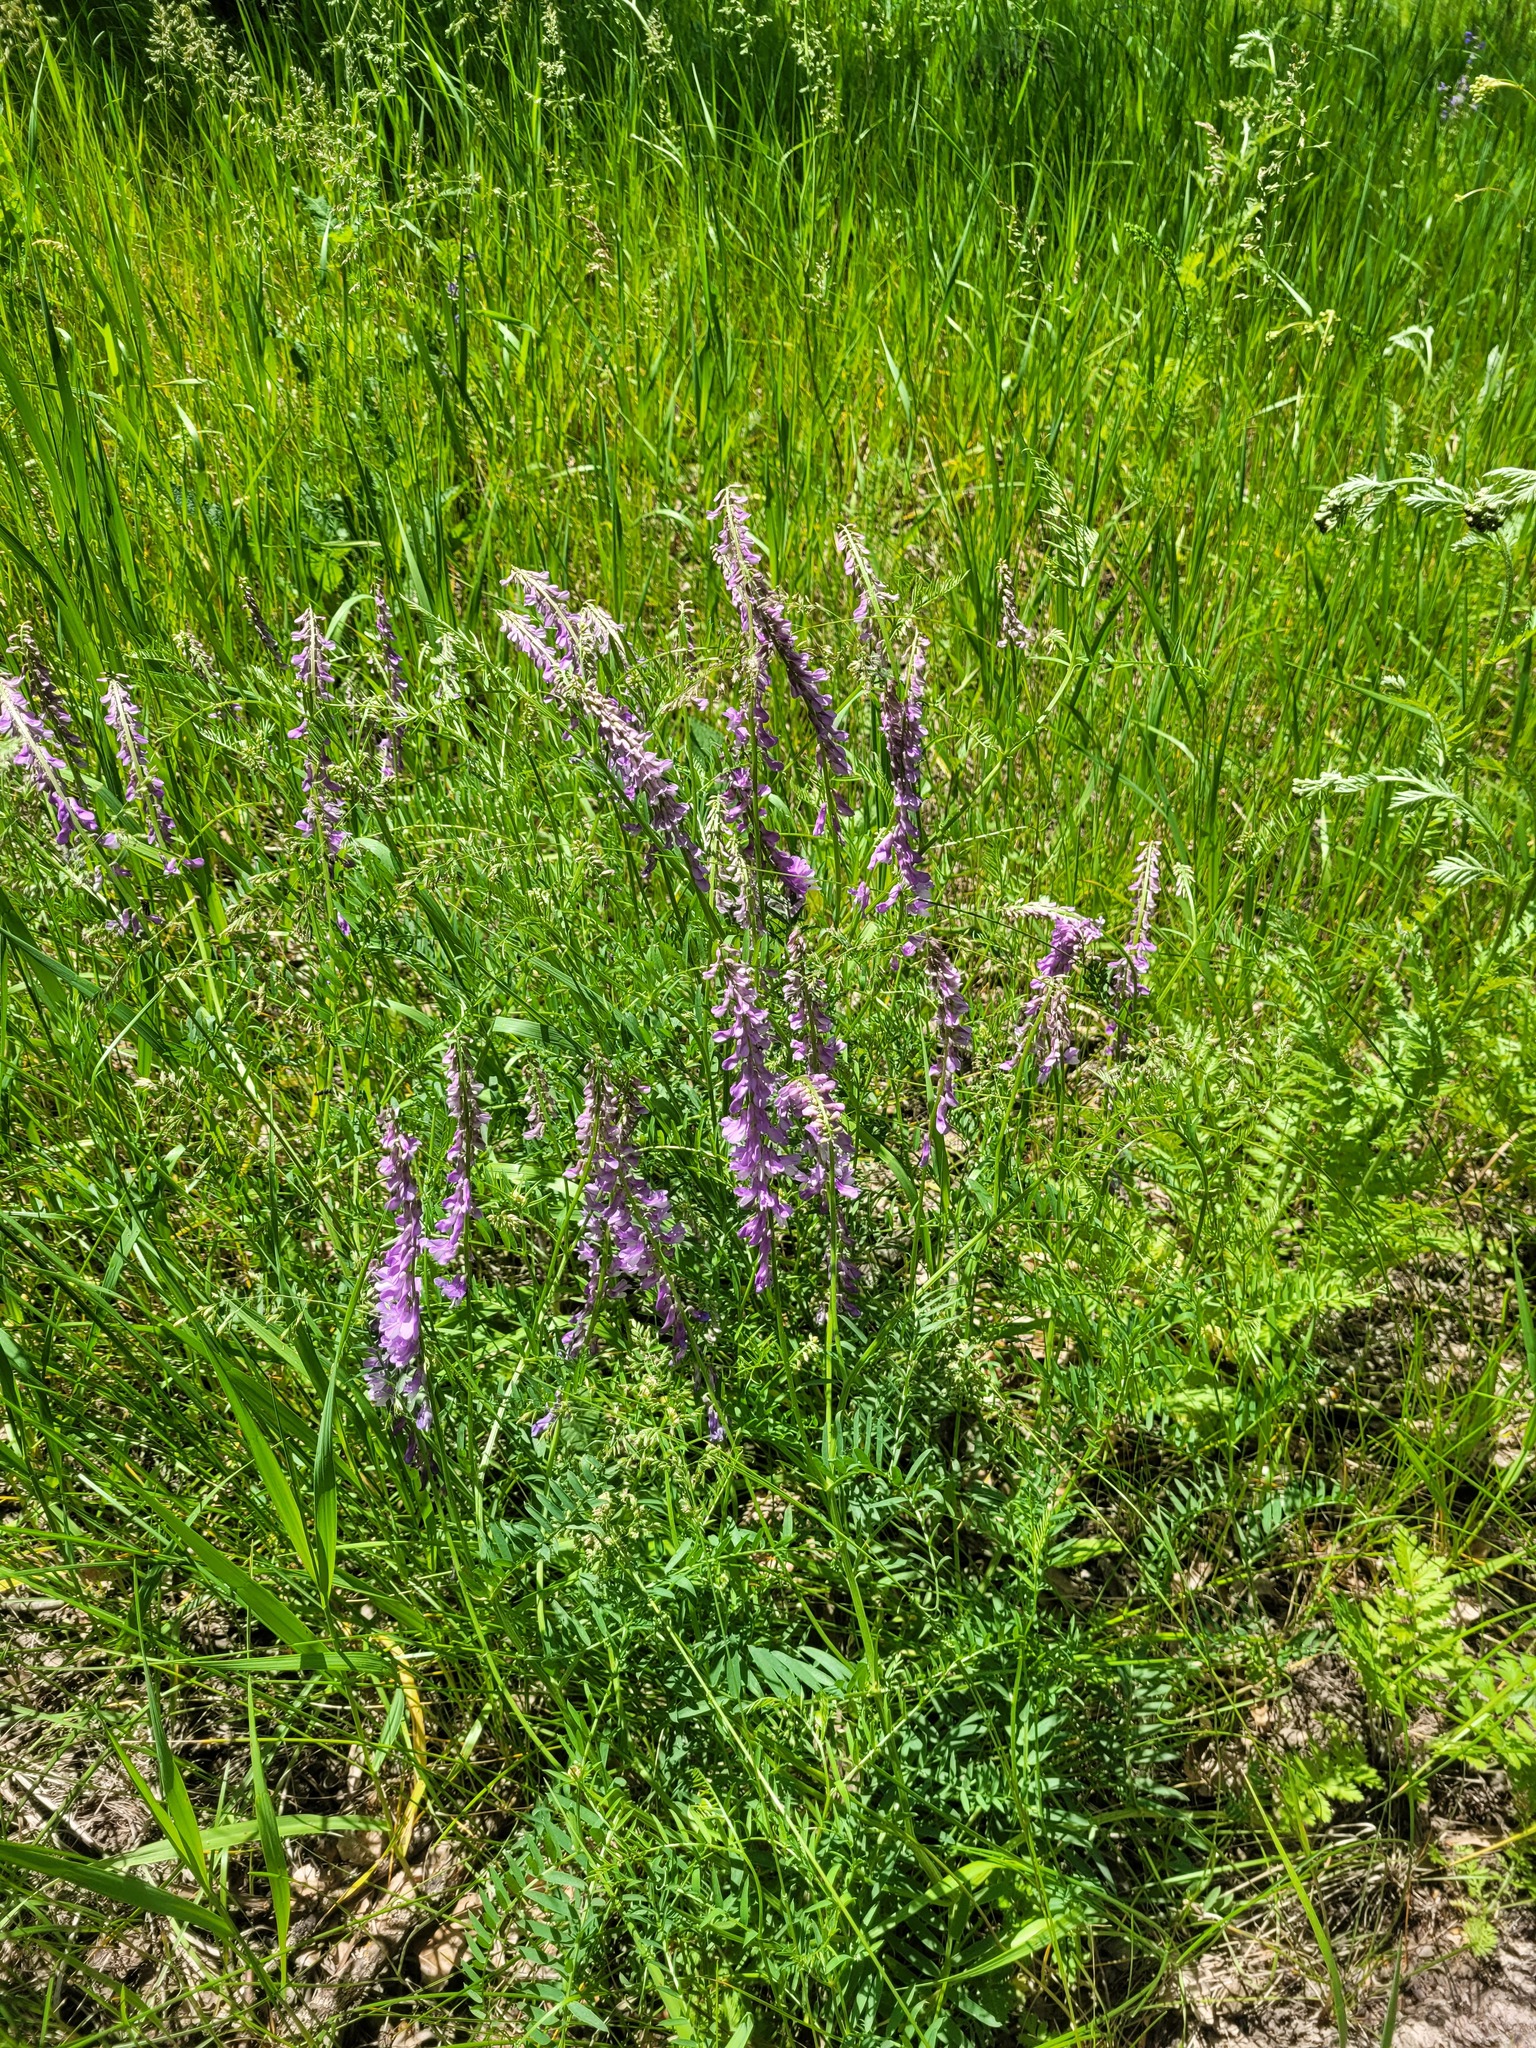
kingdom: Plantae
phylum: Tracheophyta
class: Magnoliopsida
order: Fabales
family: Fabaceae
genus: Vicia
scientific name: Vicia tenuifolia
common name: Fine-leaved vetch
